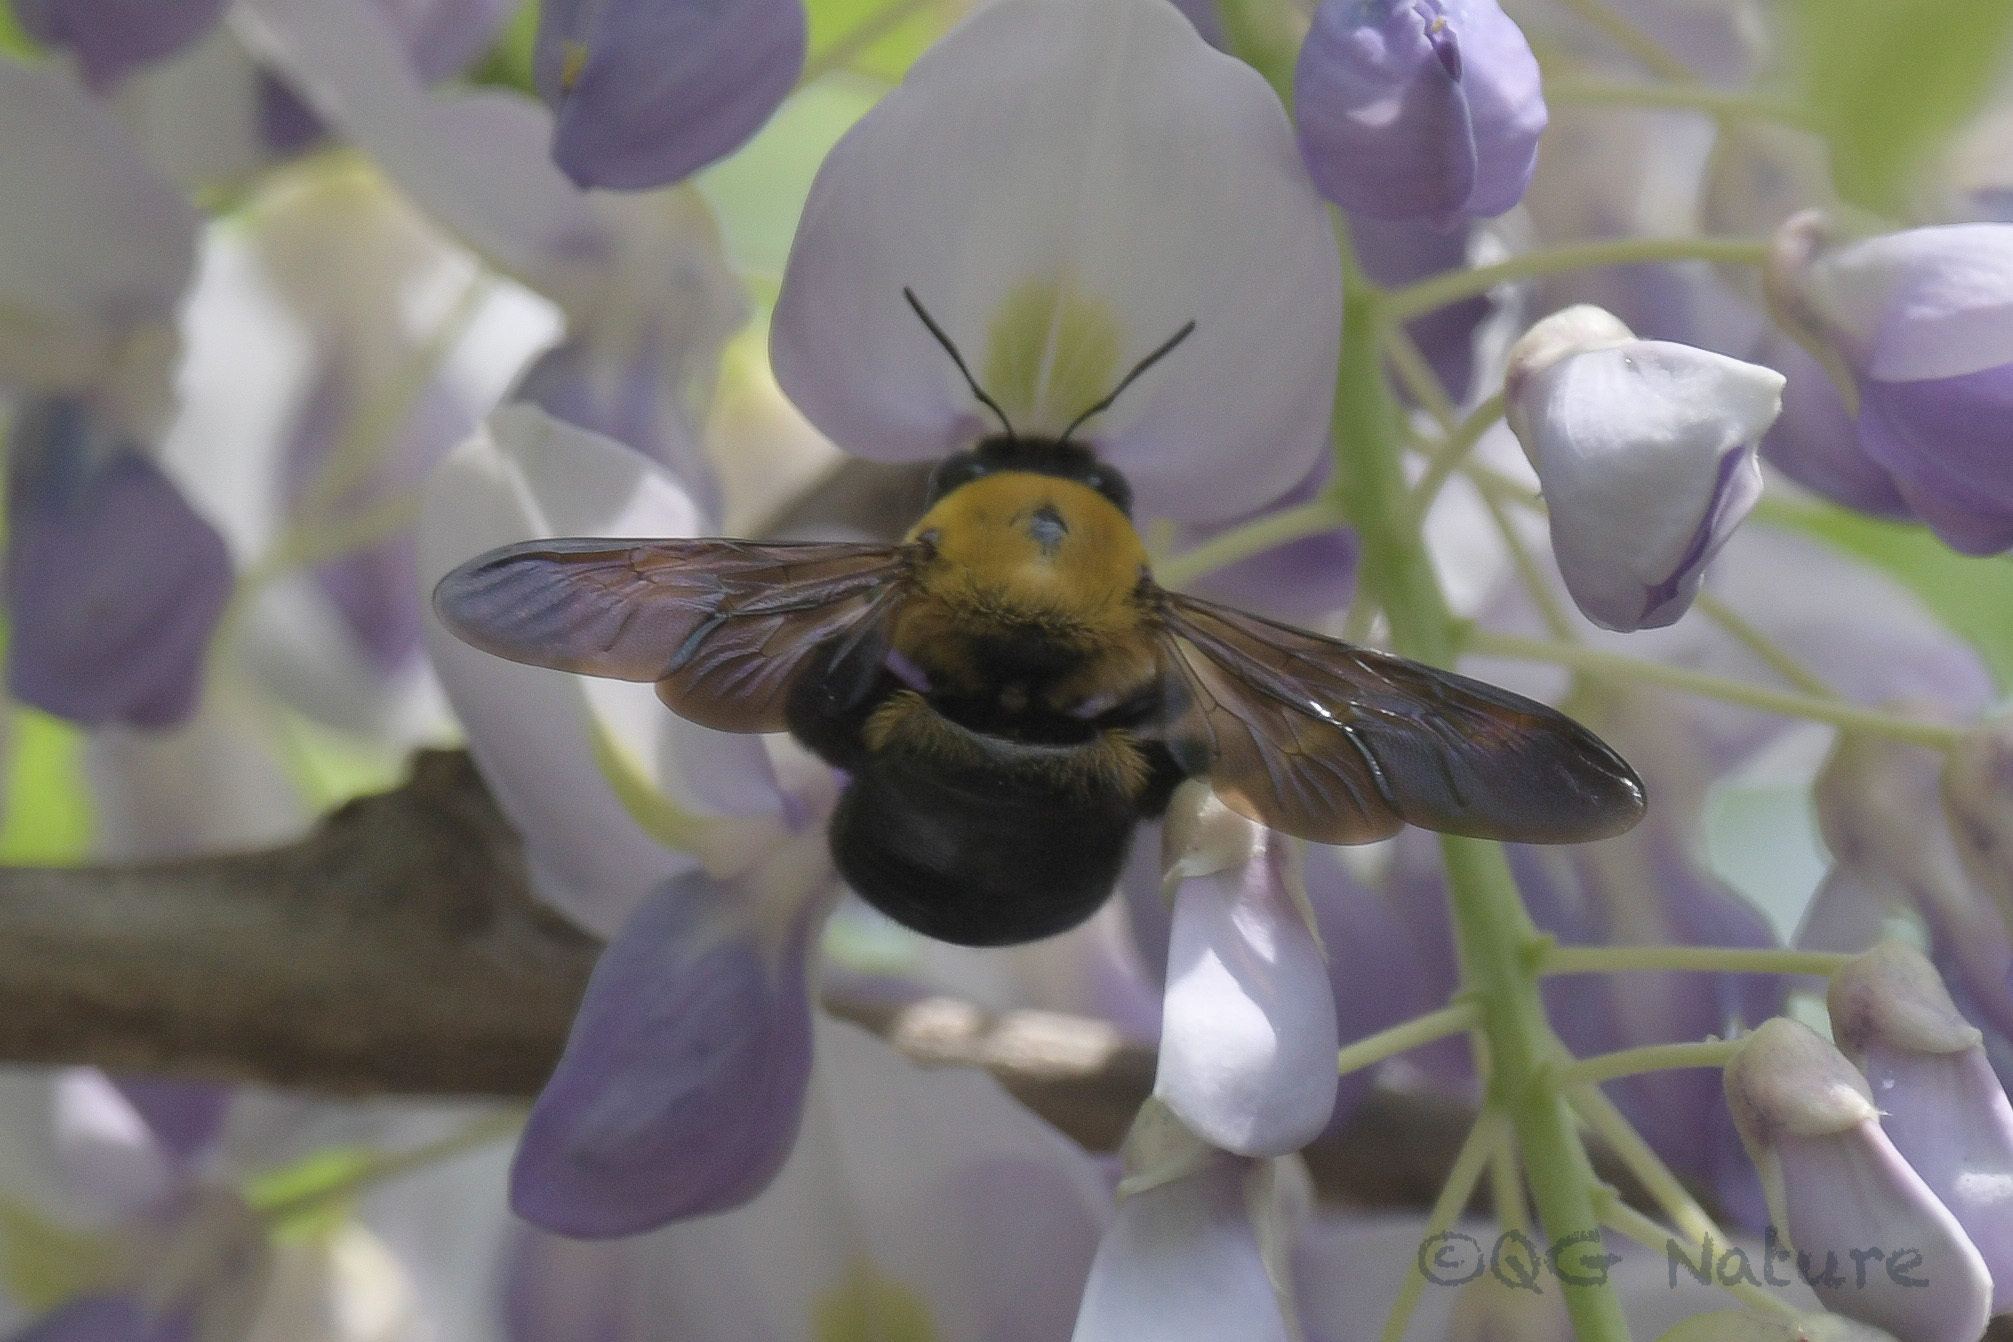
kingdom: Animalia
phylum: Arthropoda
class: Insecta
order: Hymenoptera
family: Apidae
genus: Xylocopa
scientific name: Xylocopa appendiculata
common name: Japanese carpenter bee
